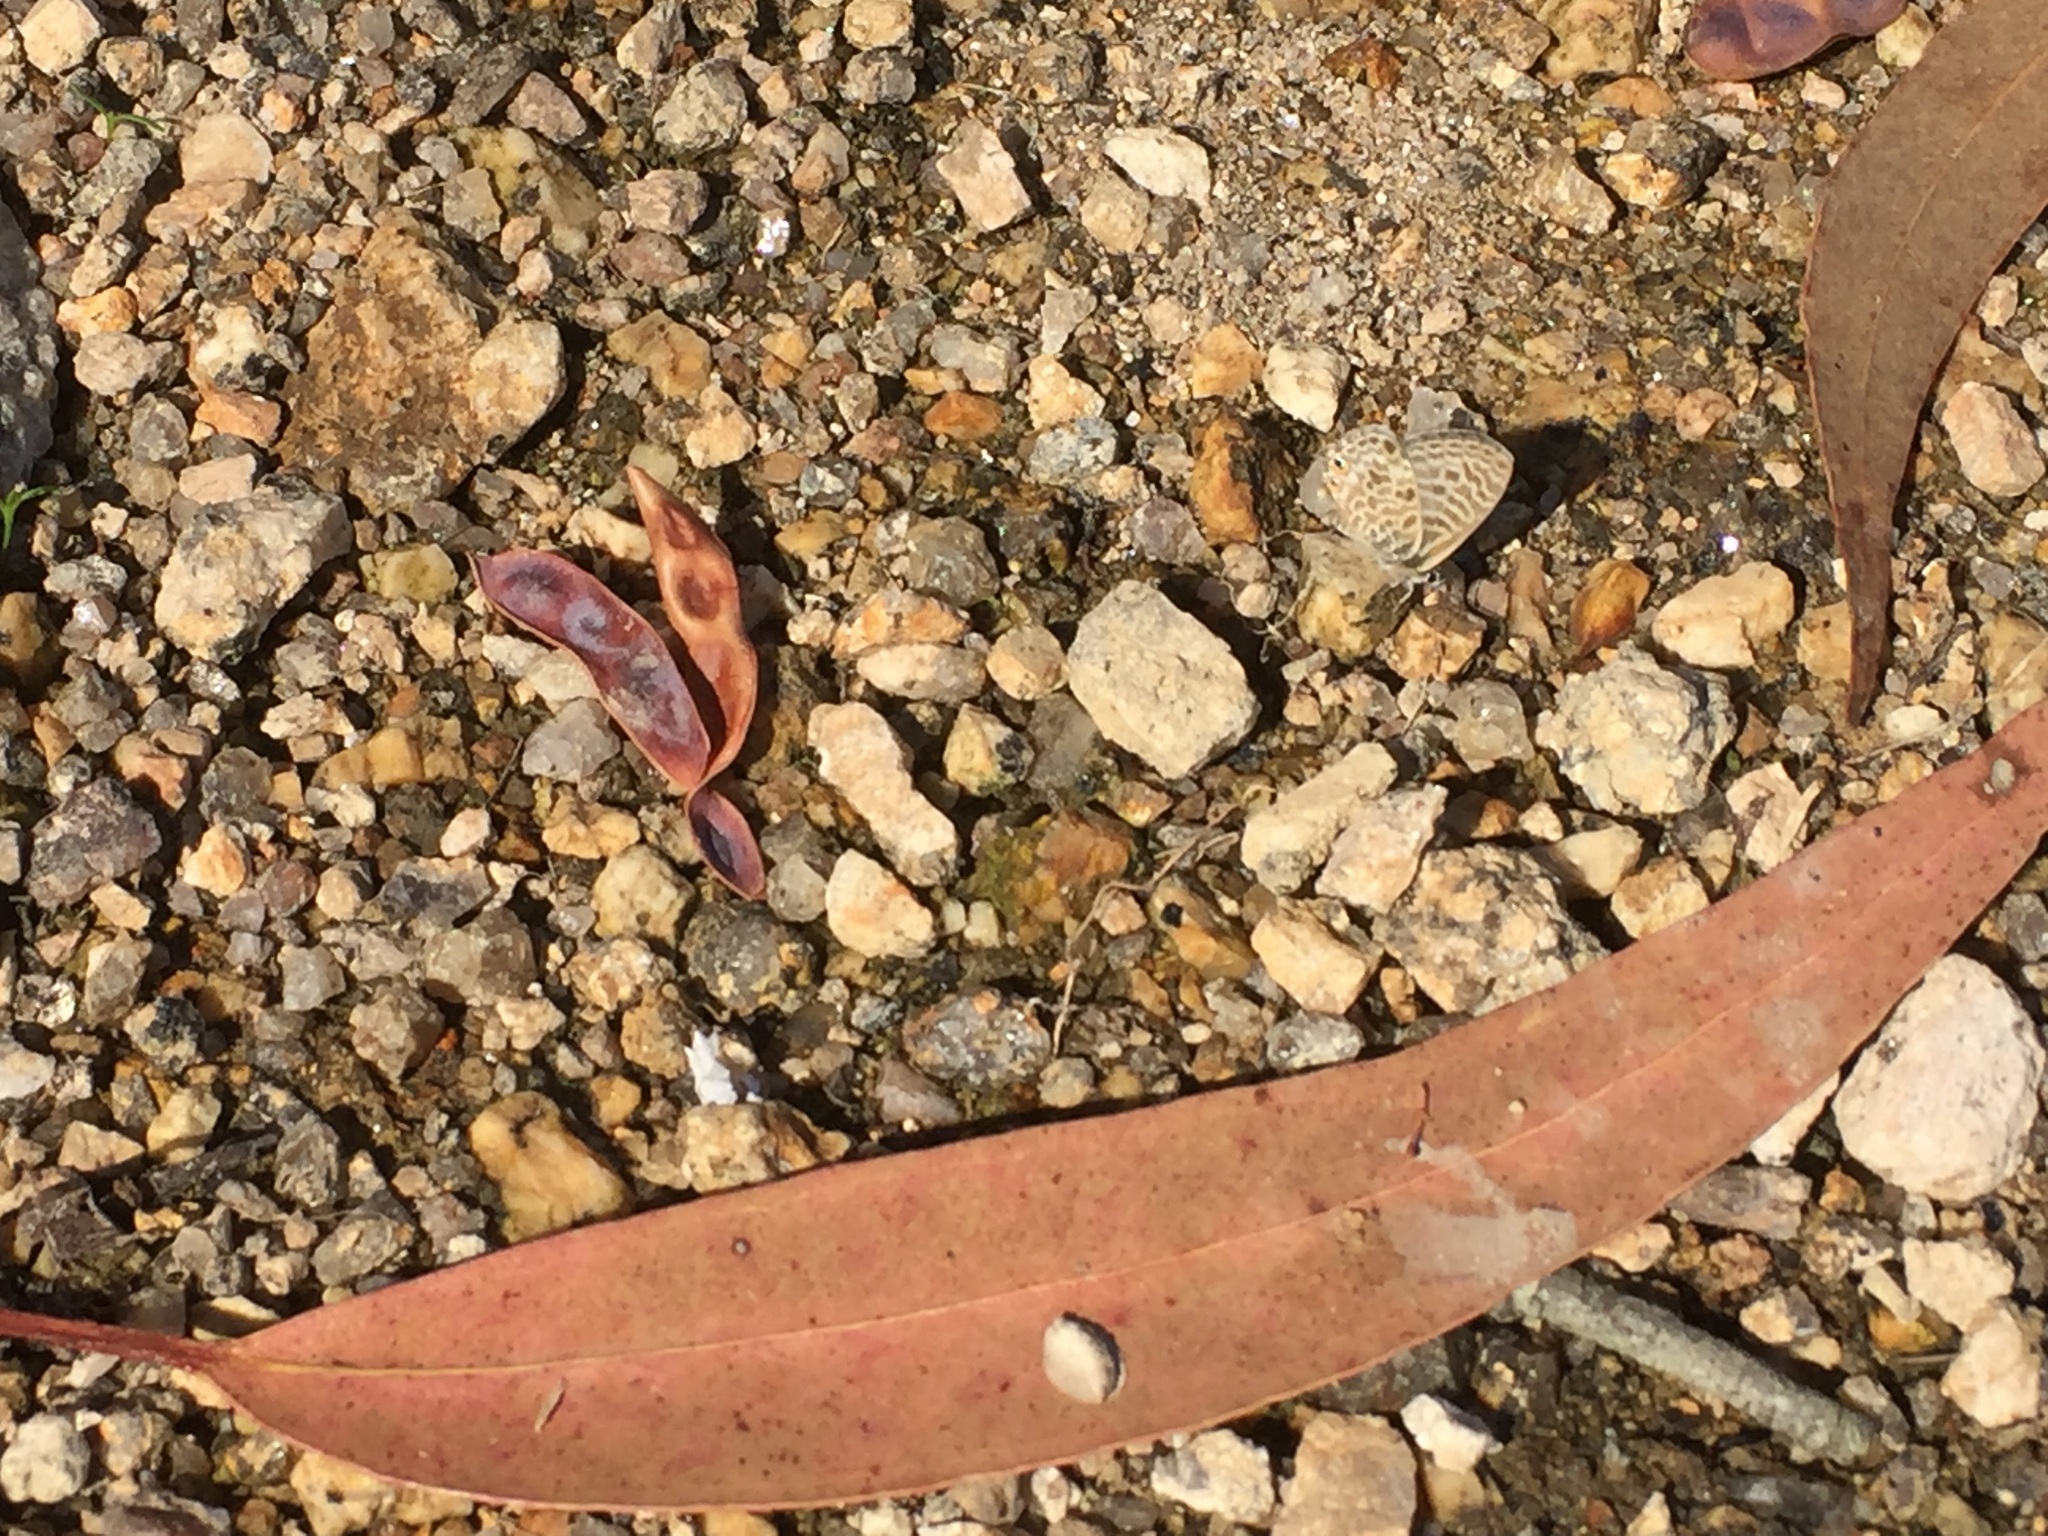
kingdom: Animalia
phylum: Arthropoda
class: Insecta
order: Lepidoptera
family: Lycaenidae
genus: Leptotes
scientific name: Leptotes pirithous
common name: Lang's short-tailed blue
